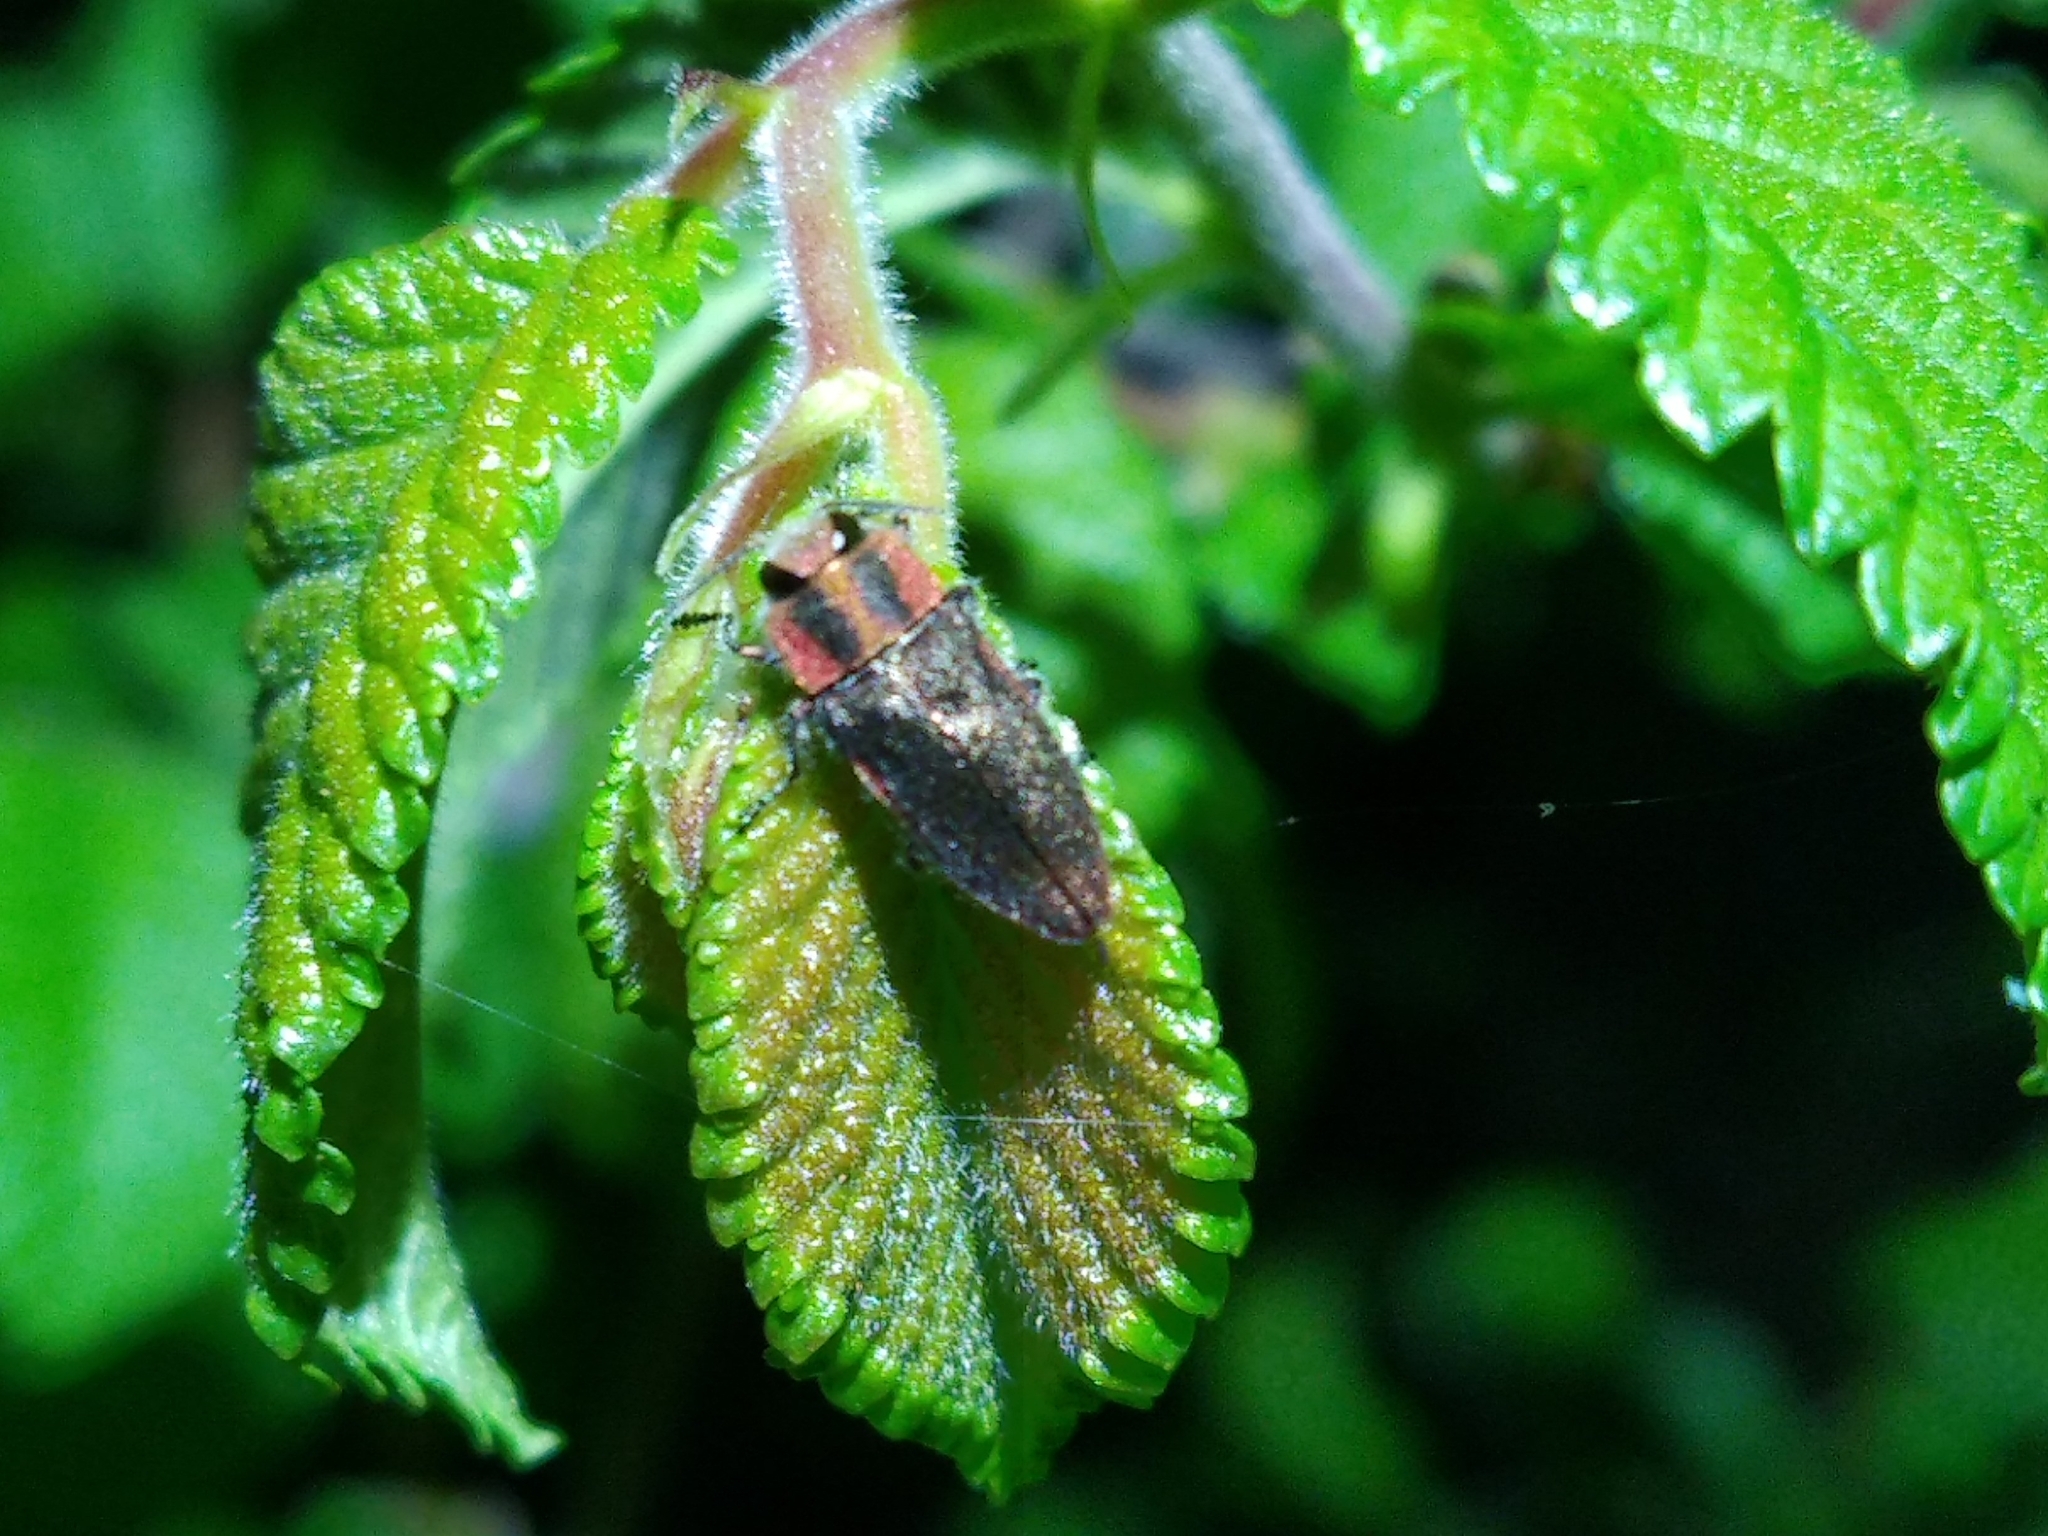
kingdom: Animalia
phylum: Arthropoda
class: Insecta
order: Coleoptera
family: Buprestidae
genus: Anthaxia
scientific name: Anthaxia manca
